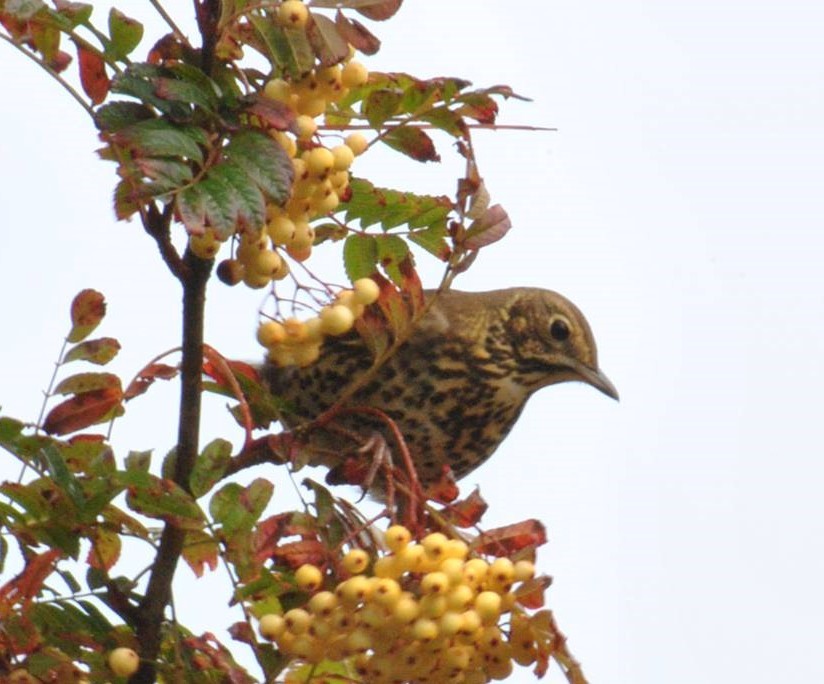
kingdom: Animalia
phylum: Chordata
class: Aves
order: Passeriformes
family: Turdidae
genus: Turdus
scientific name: Turdus philomelos
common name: Song thrush
